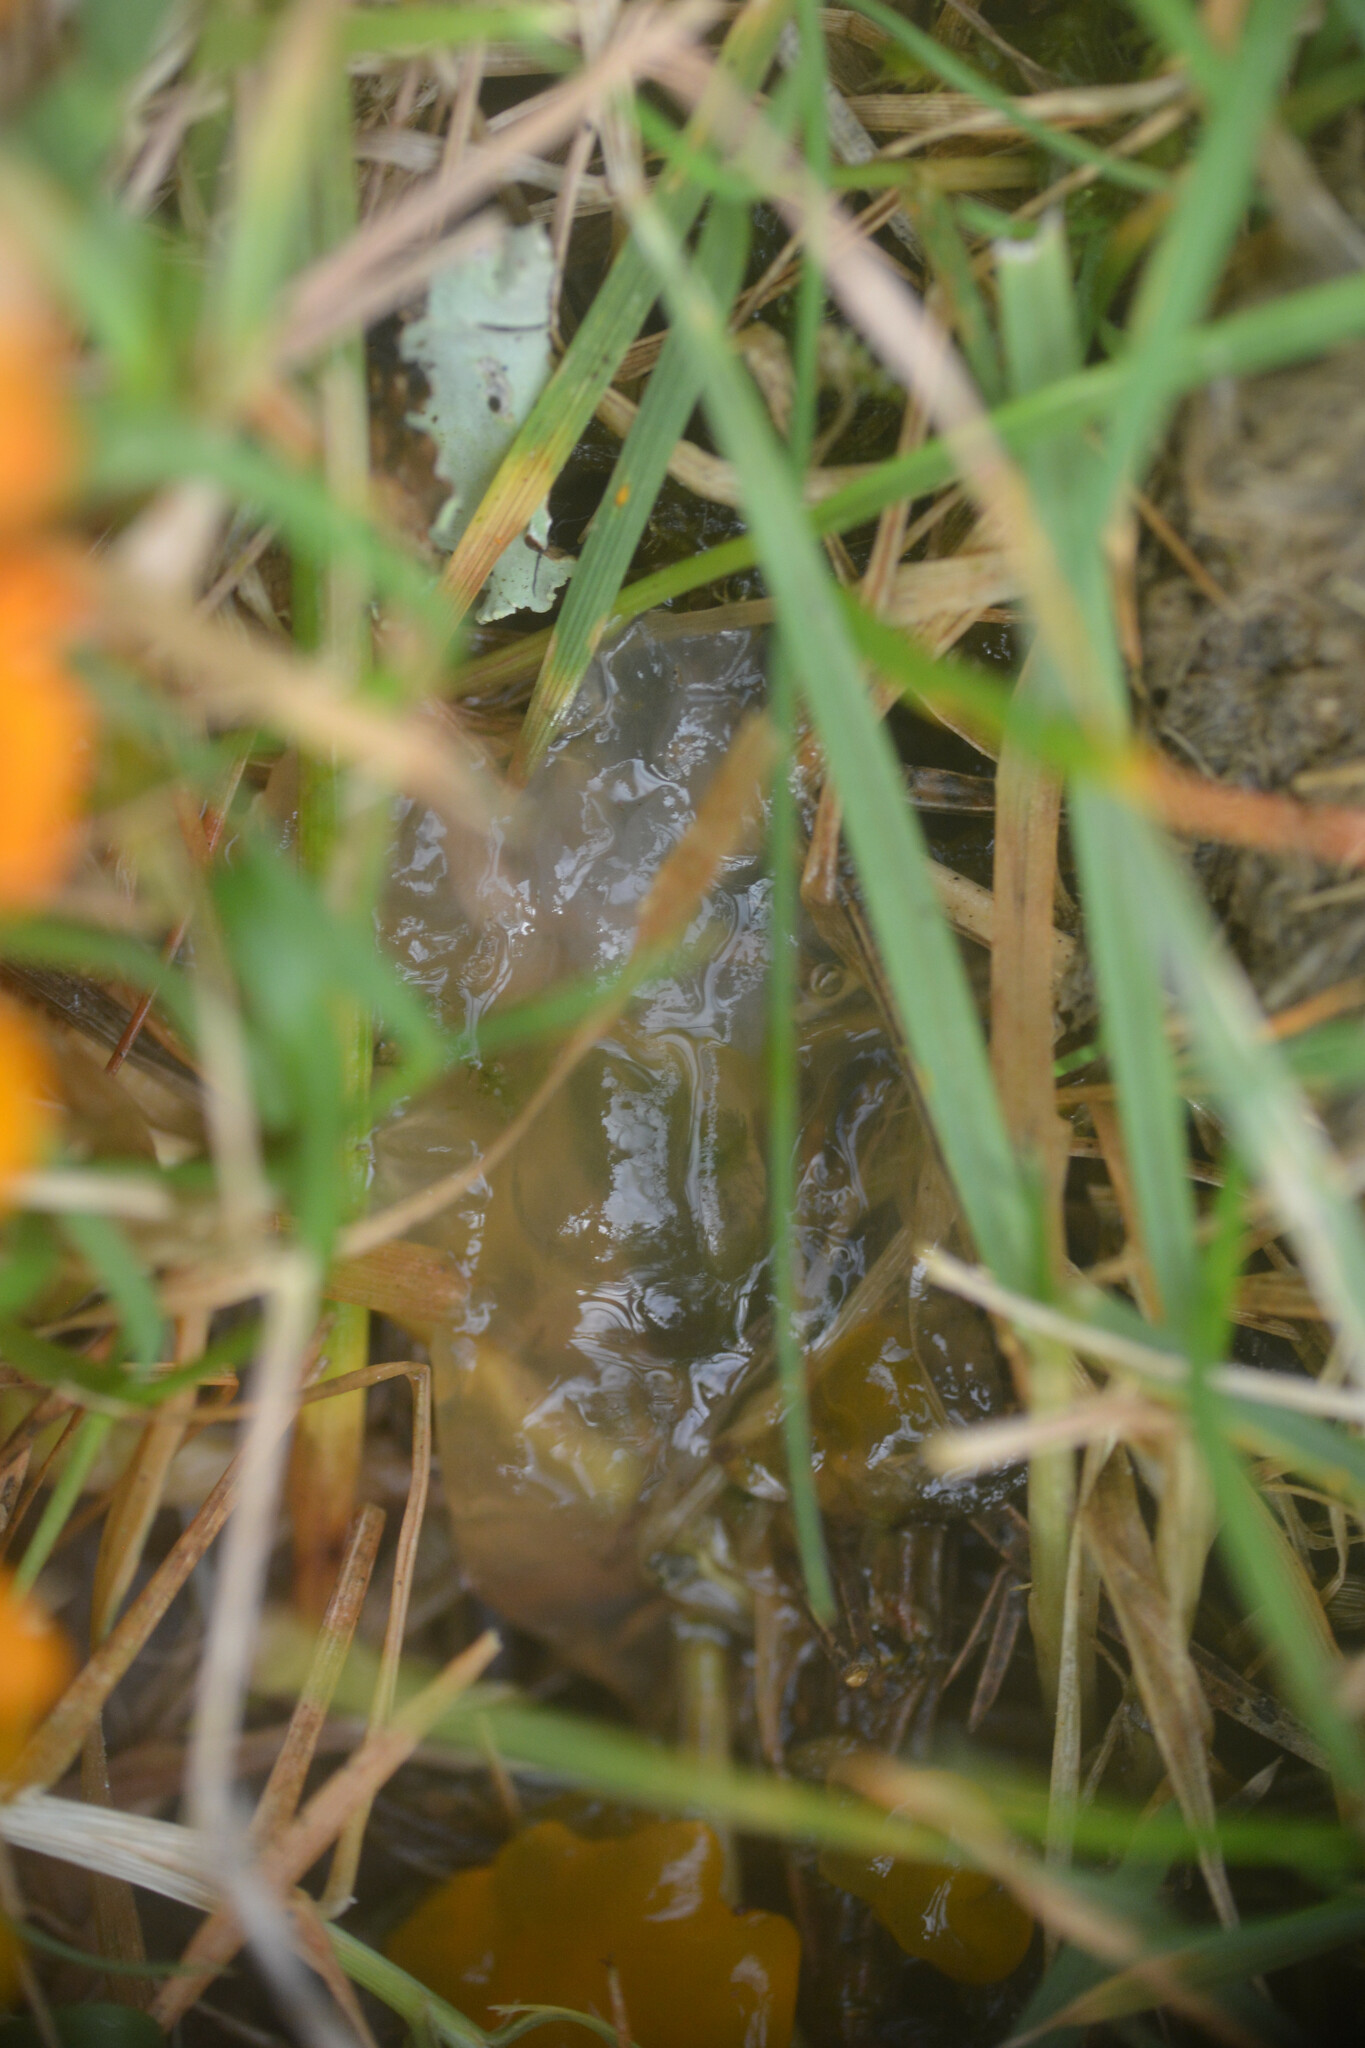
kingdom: Bacteria
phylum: Cyanobacteria
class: Cyanobacteriia
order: Cyanobacteriales
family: Nostocaceae
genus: Nostoc
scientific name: Nostoc commune
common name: Star jelly
